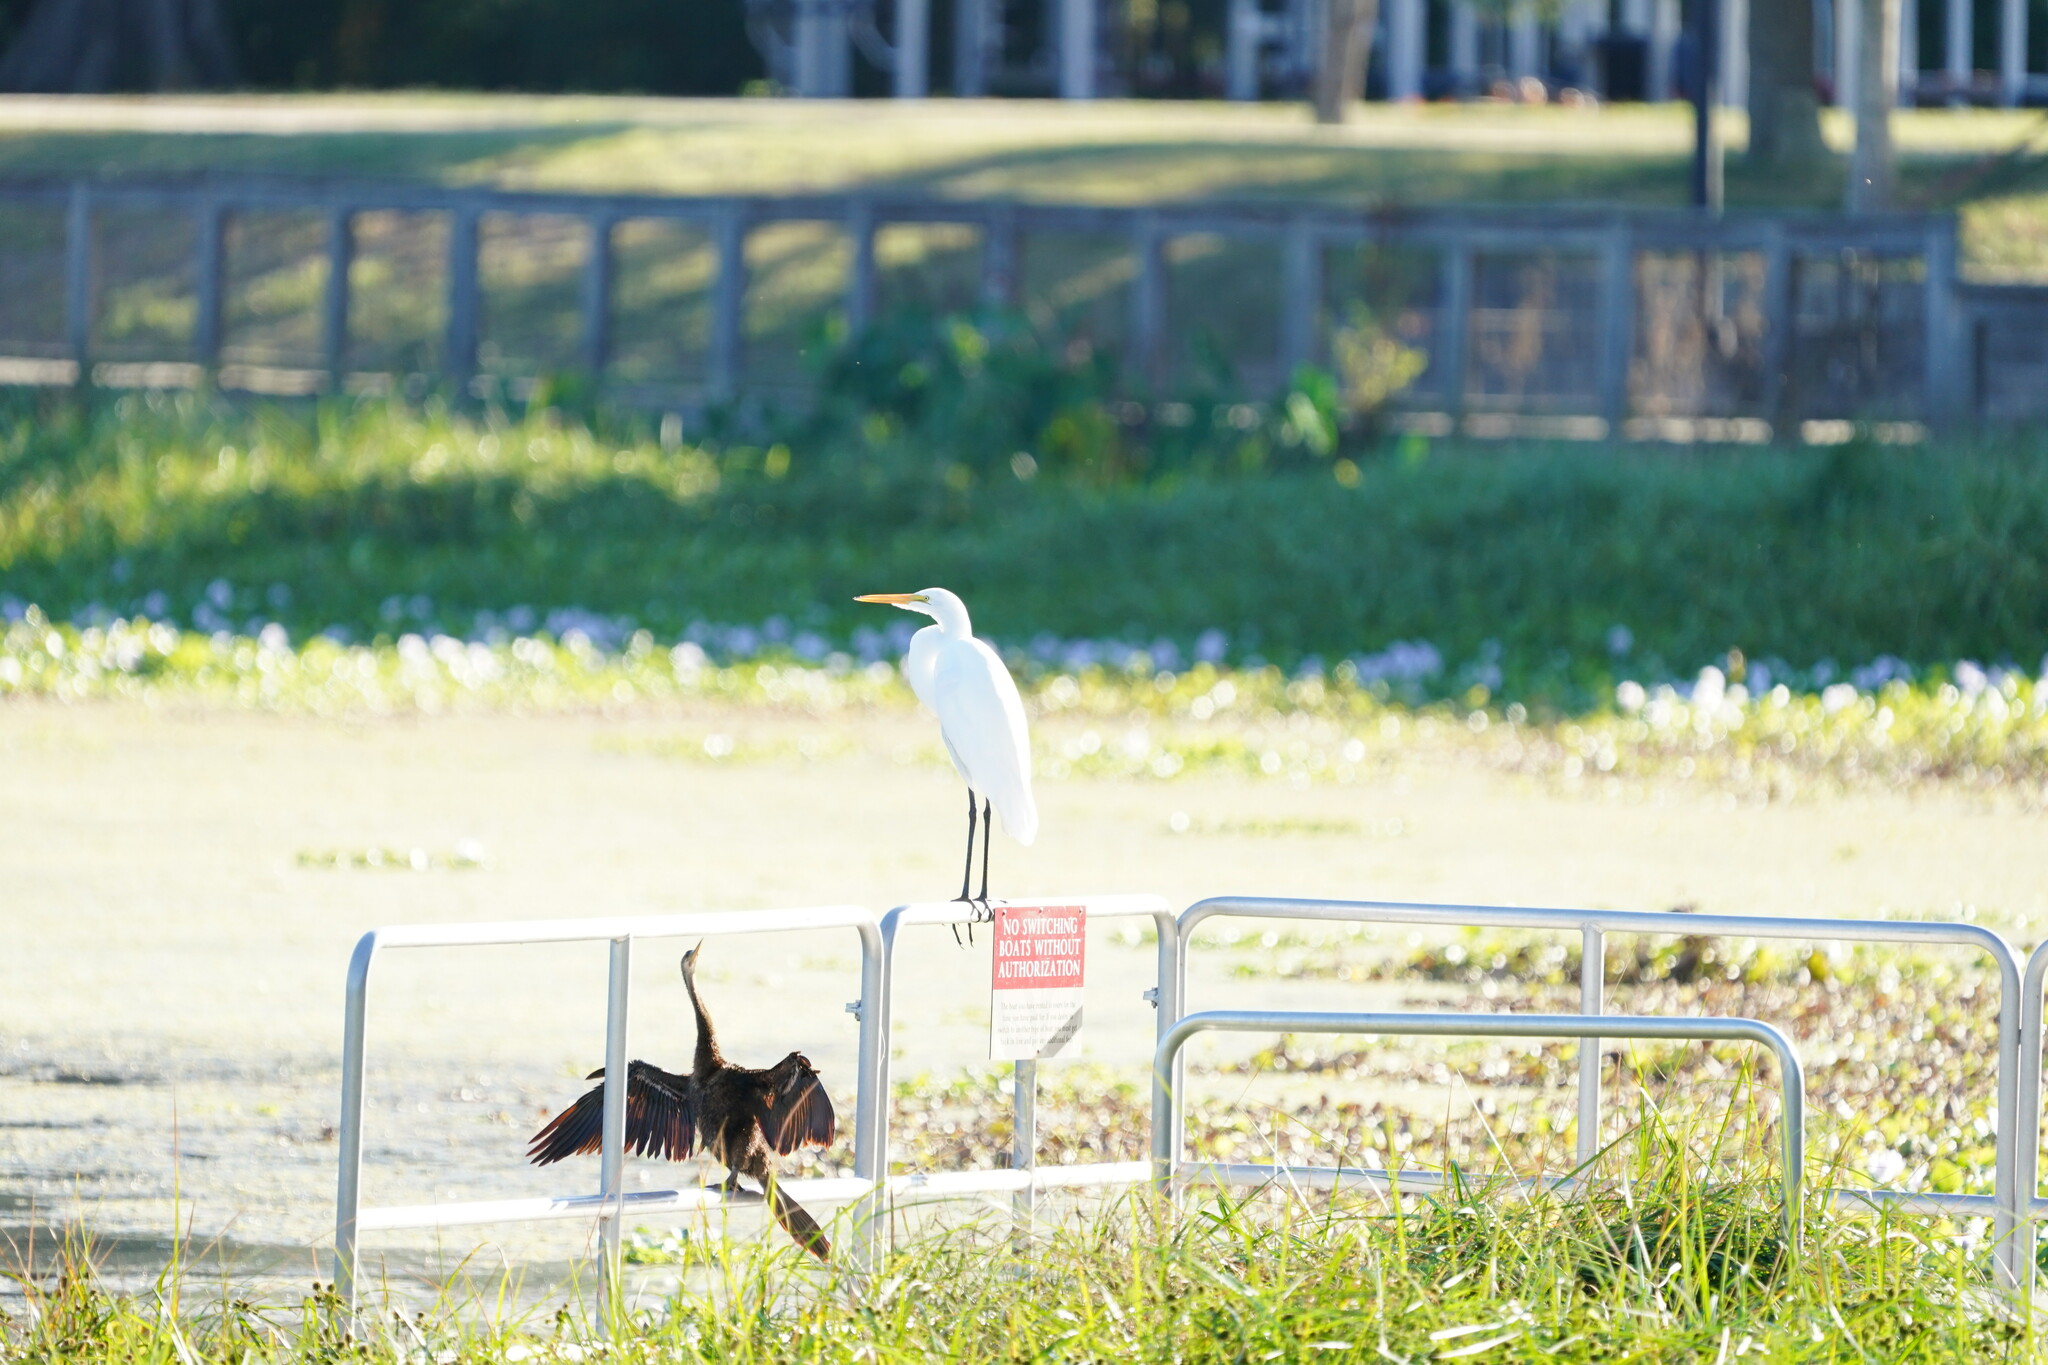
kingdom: Animalia
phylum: Chordata
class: Aves
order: Pelecaniformes
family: Ardeidae
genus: Ardea
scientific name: Ardea alba
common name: Great egret
